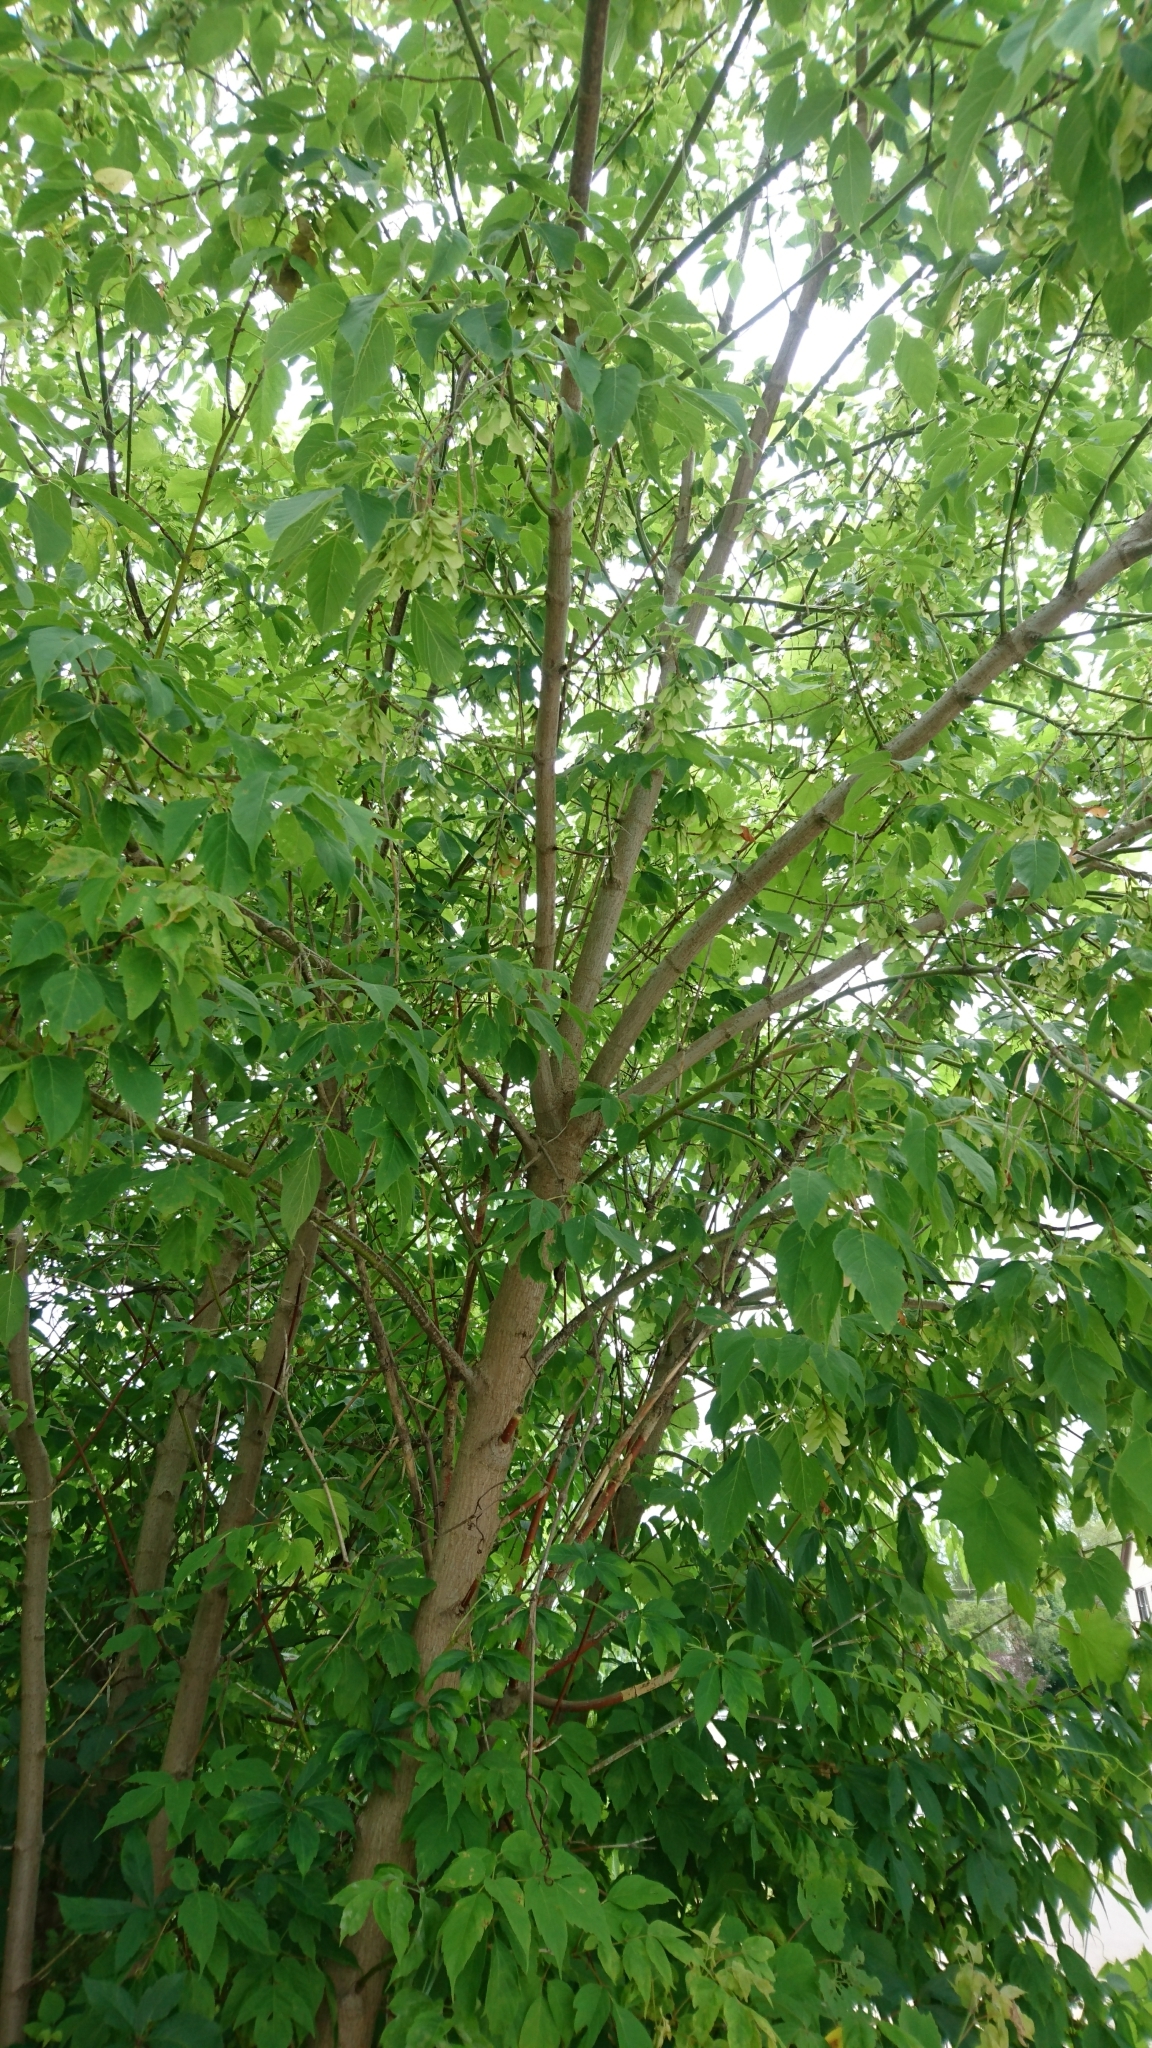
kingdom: Plantae
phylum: Tracheophyta
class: Magnoliopsida
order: Sapindales
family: Sapindaceae
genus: Acer
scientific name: Acer negundo
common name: Ashleaf maple
